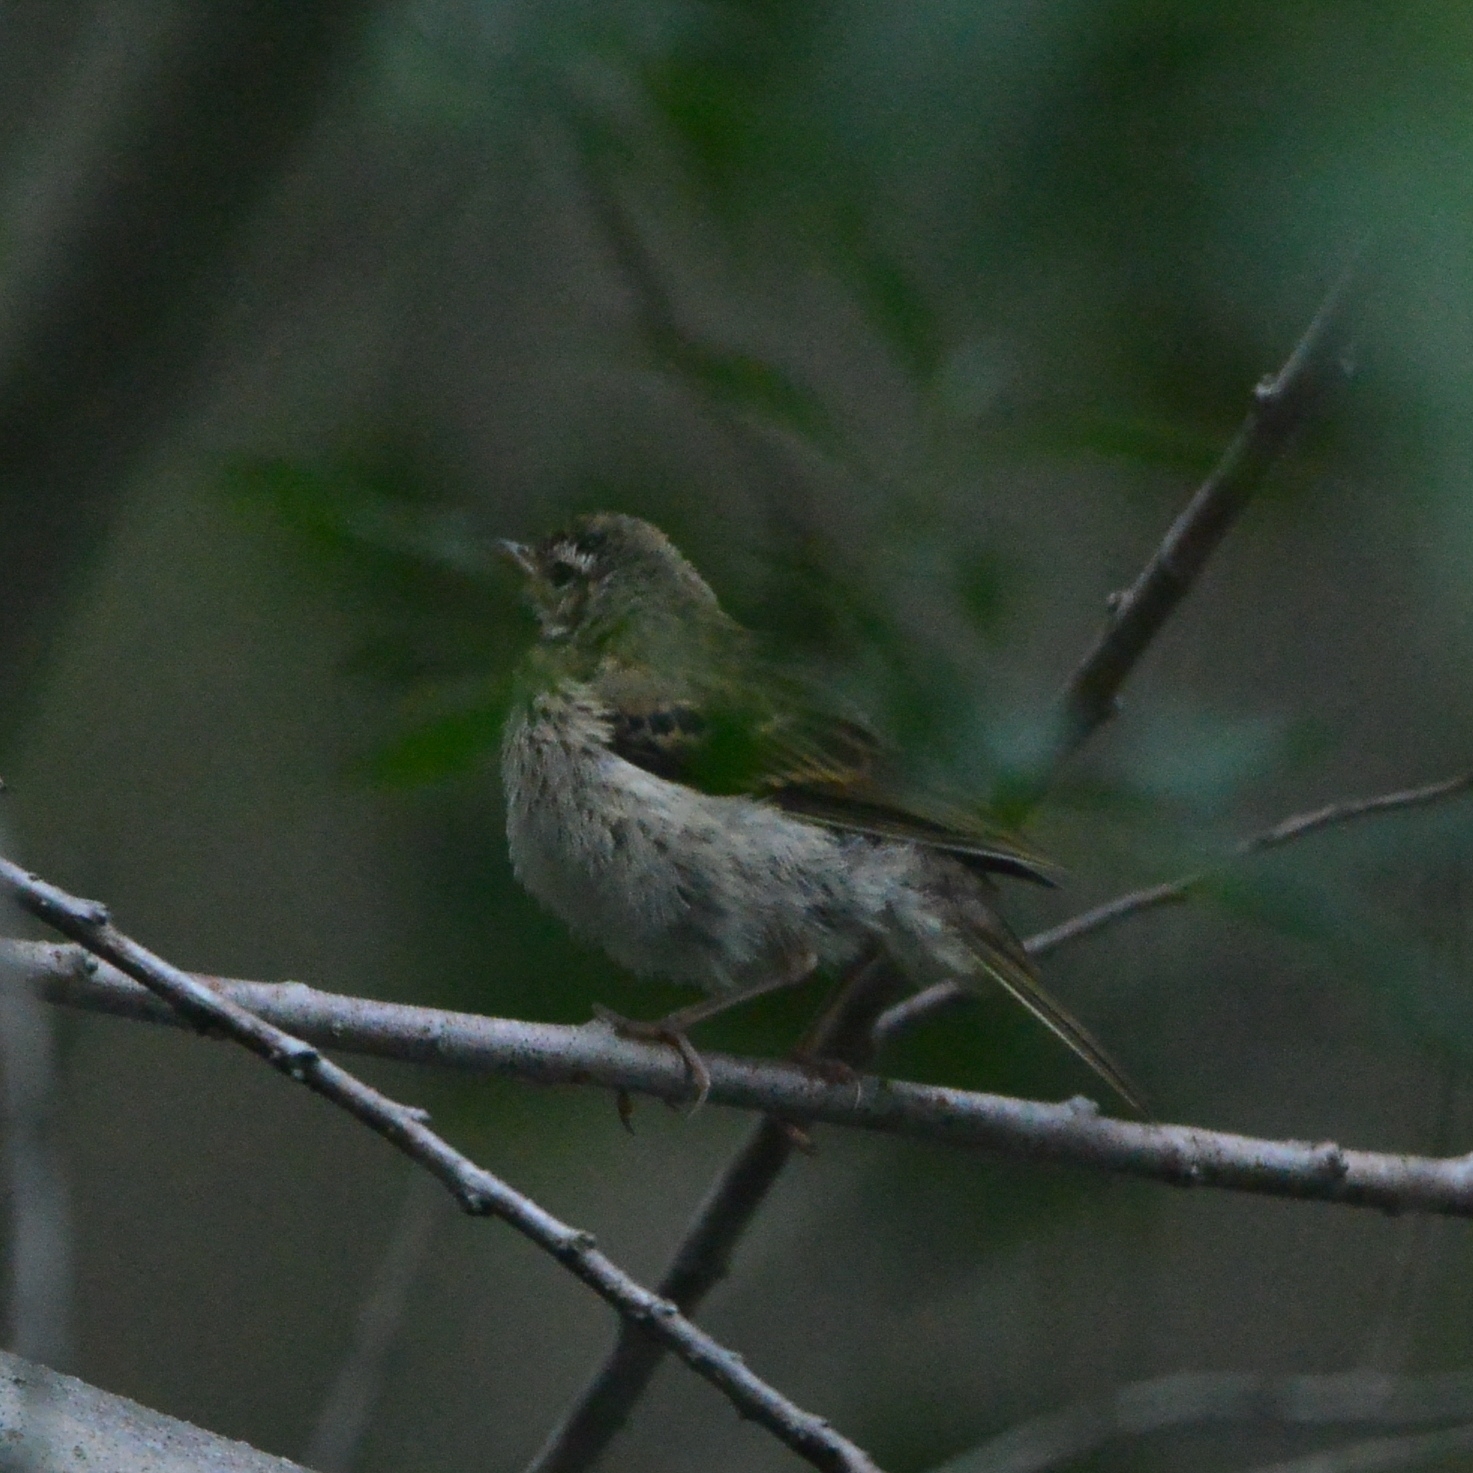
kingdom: Animalia
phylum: Chordata
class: Aves
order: Passeriformes
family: Motacillidae
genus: Anthus
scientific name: Anthus hodgsoni
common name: Olive-backed pipit
